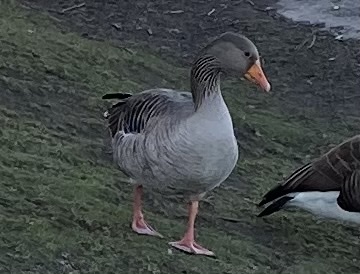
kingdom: Animalia
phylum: Chordata
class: Aves
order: Anseriformes
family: Anatidae
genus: Anser
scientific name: Anser anser
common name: Greylag goose
